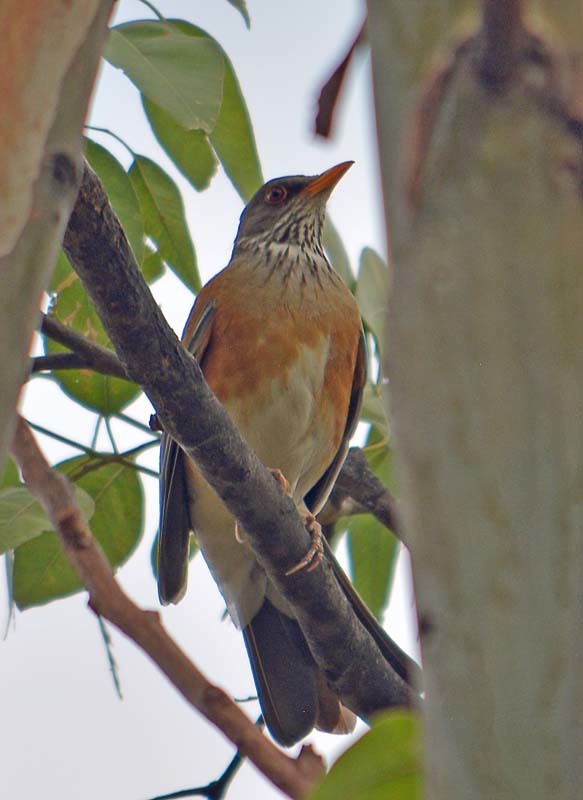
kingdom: Animalia
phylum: Chordata
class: Aves
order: Passeriformes
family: Turdidae
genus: Turdus
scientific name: Turdus rufopalliatus
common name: Rufous-backed robin
